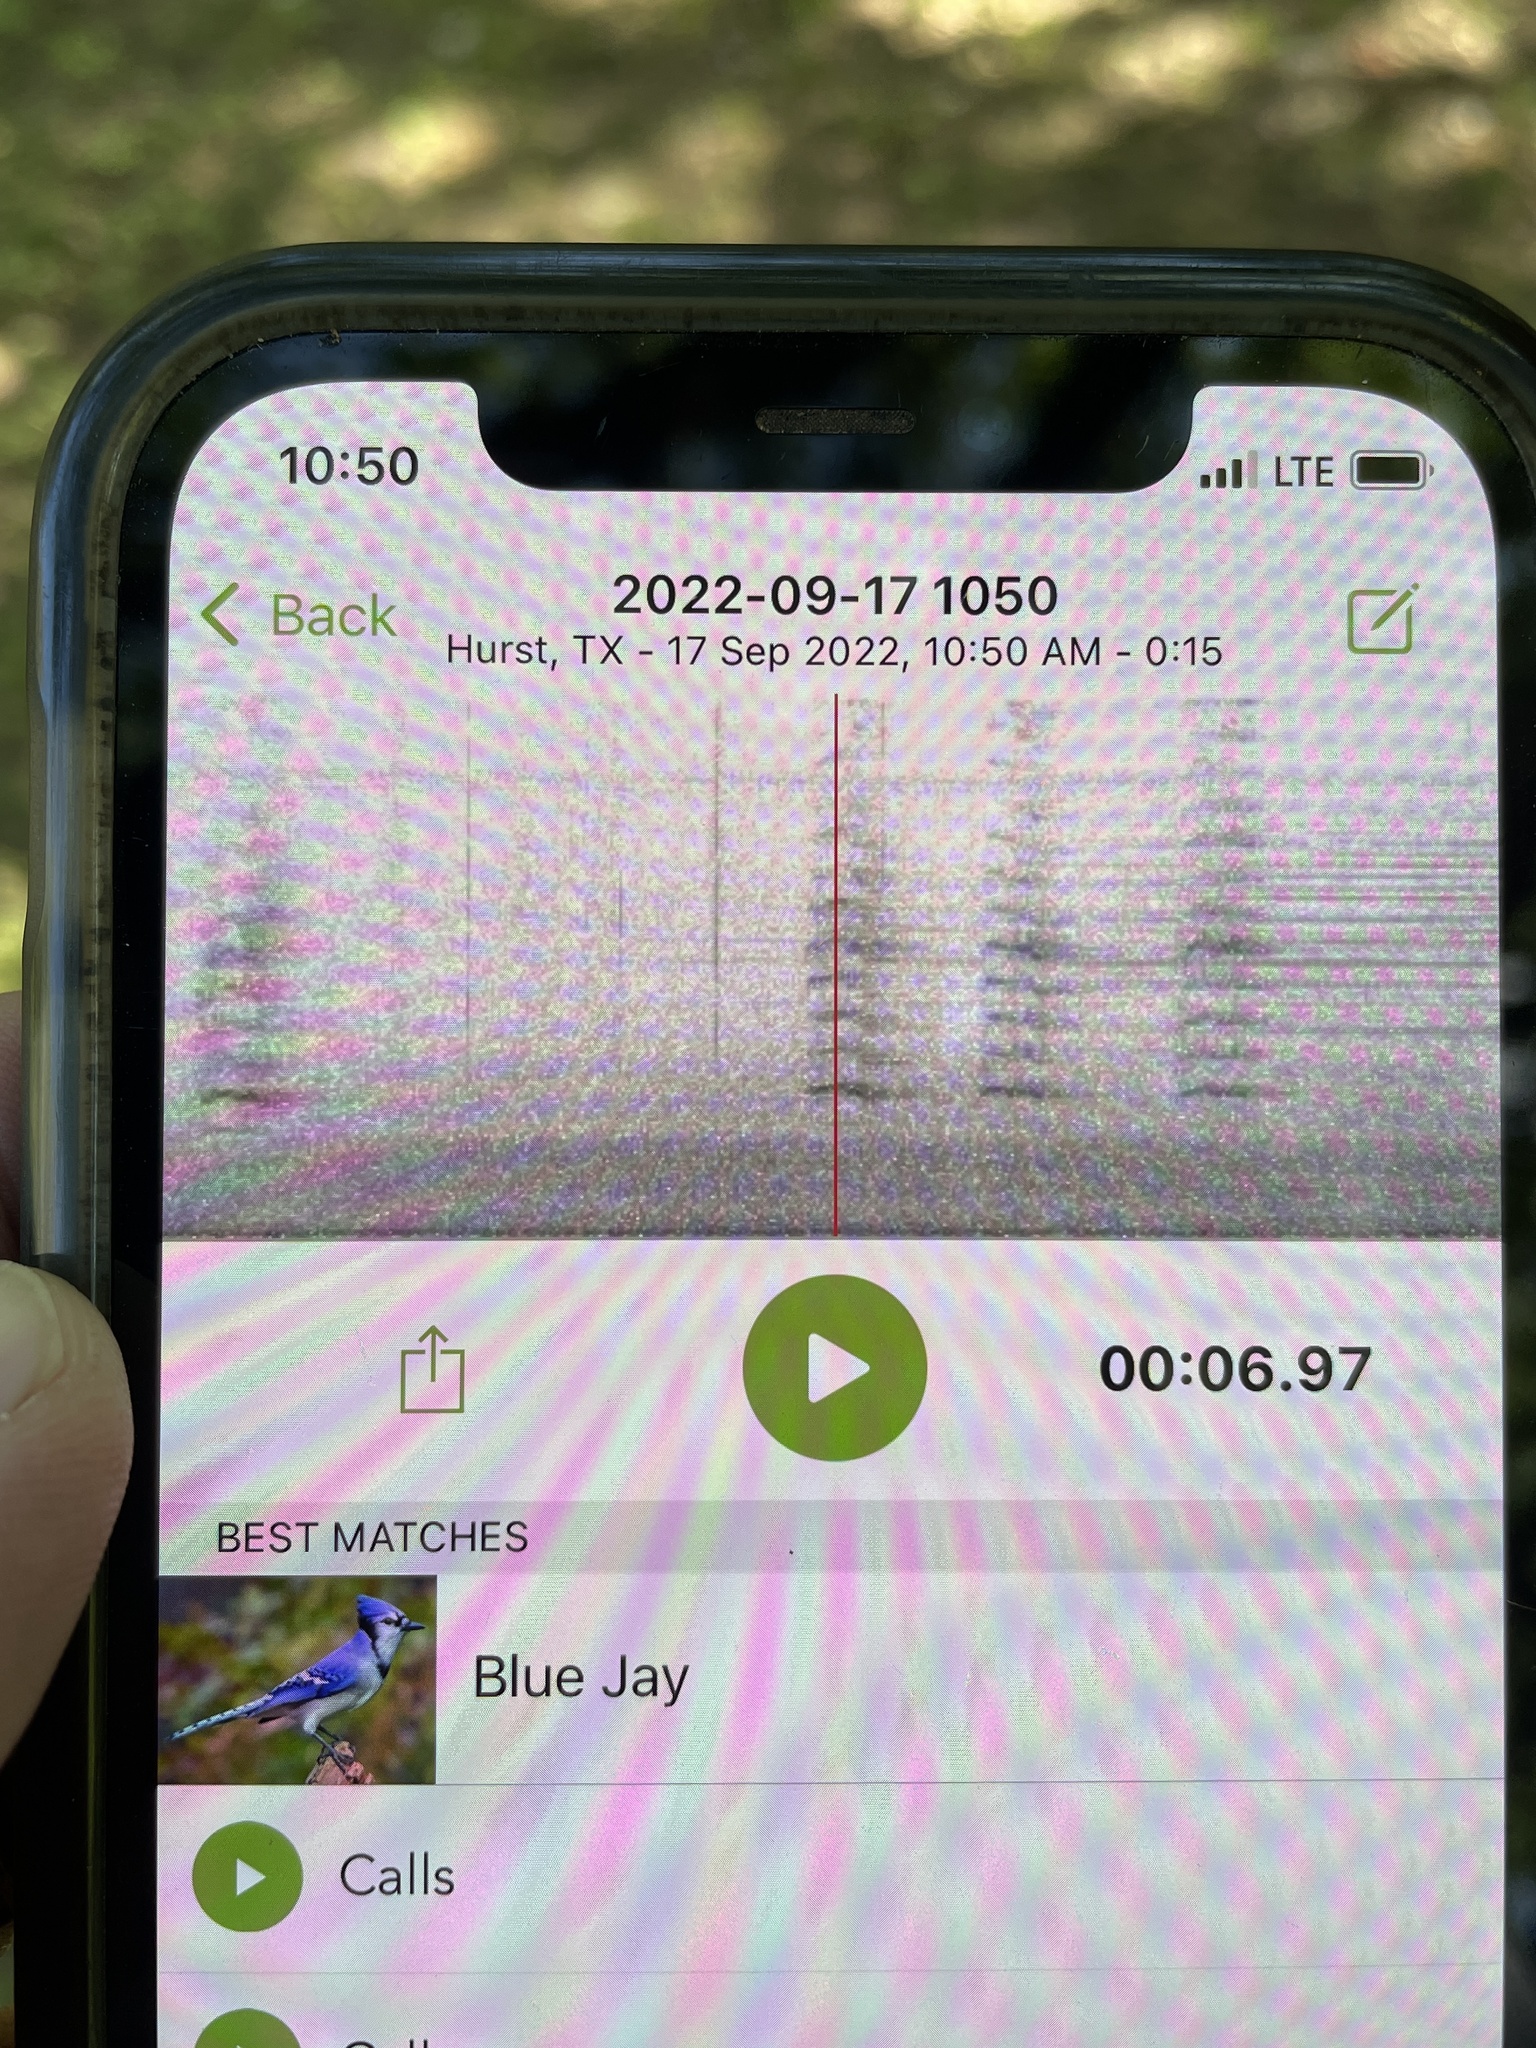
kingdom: Animalia
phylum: Chordata
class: Aves
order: Passeriformes
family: Corvidae
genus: Cyanocitta
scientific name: Cyanocitta cristata
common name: Blue jay
